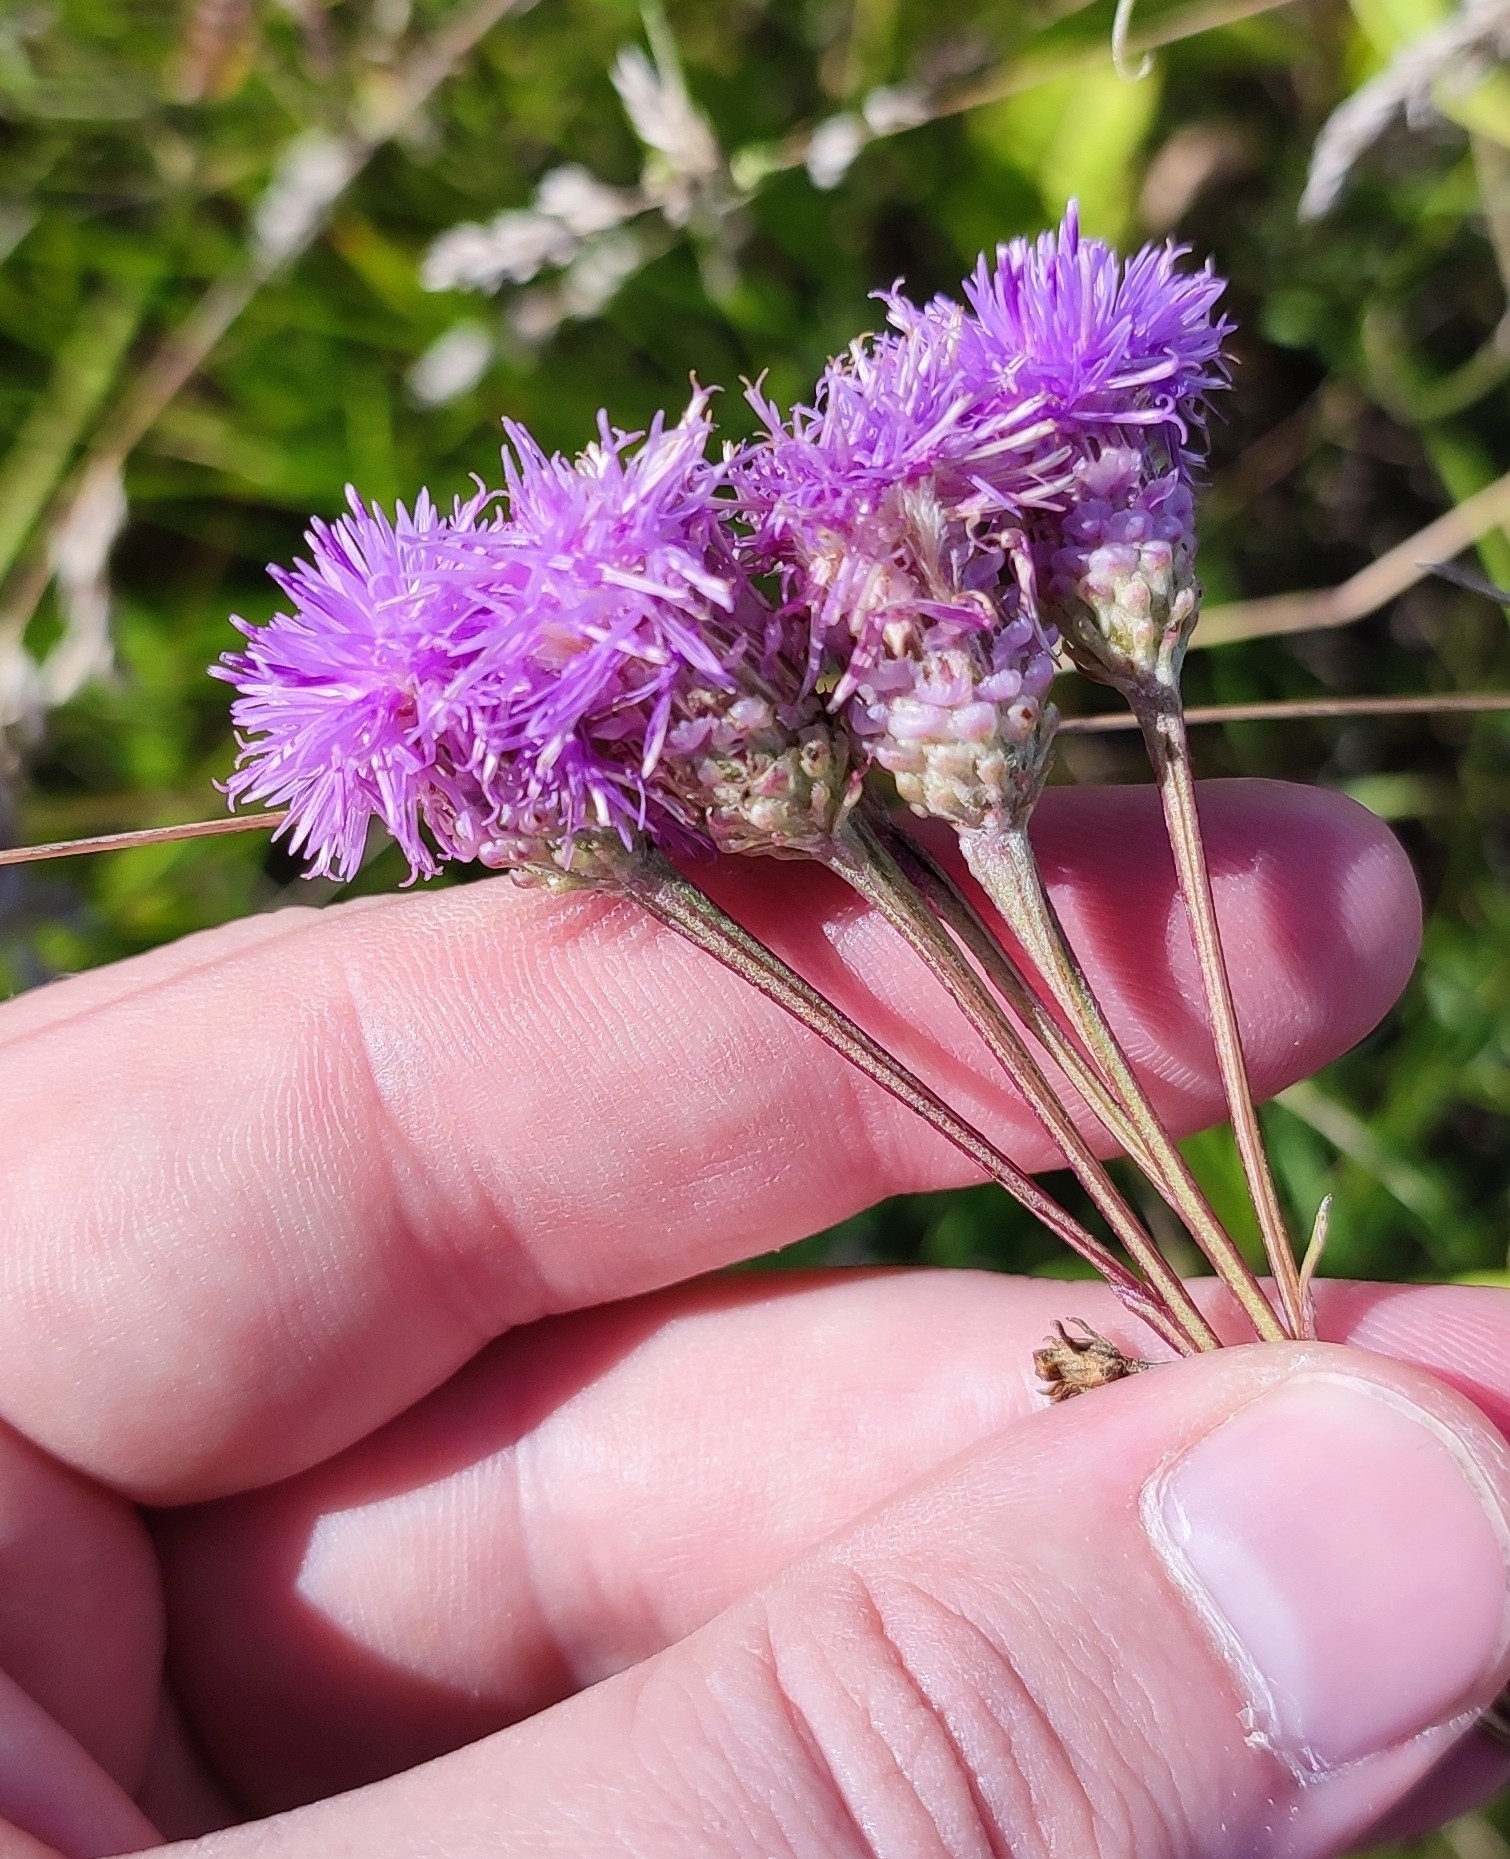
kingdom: Plantae
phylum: Tracheophyta
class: Magnoliopsida
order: Asterales
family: Asteraceae
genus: Saussurea
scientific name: Saussurea amara
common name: Alberta sawwort
